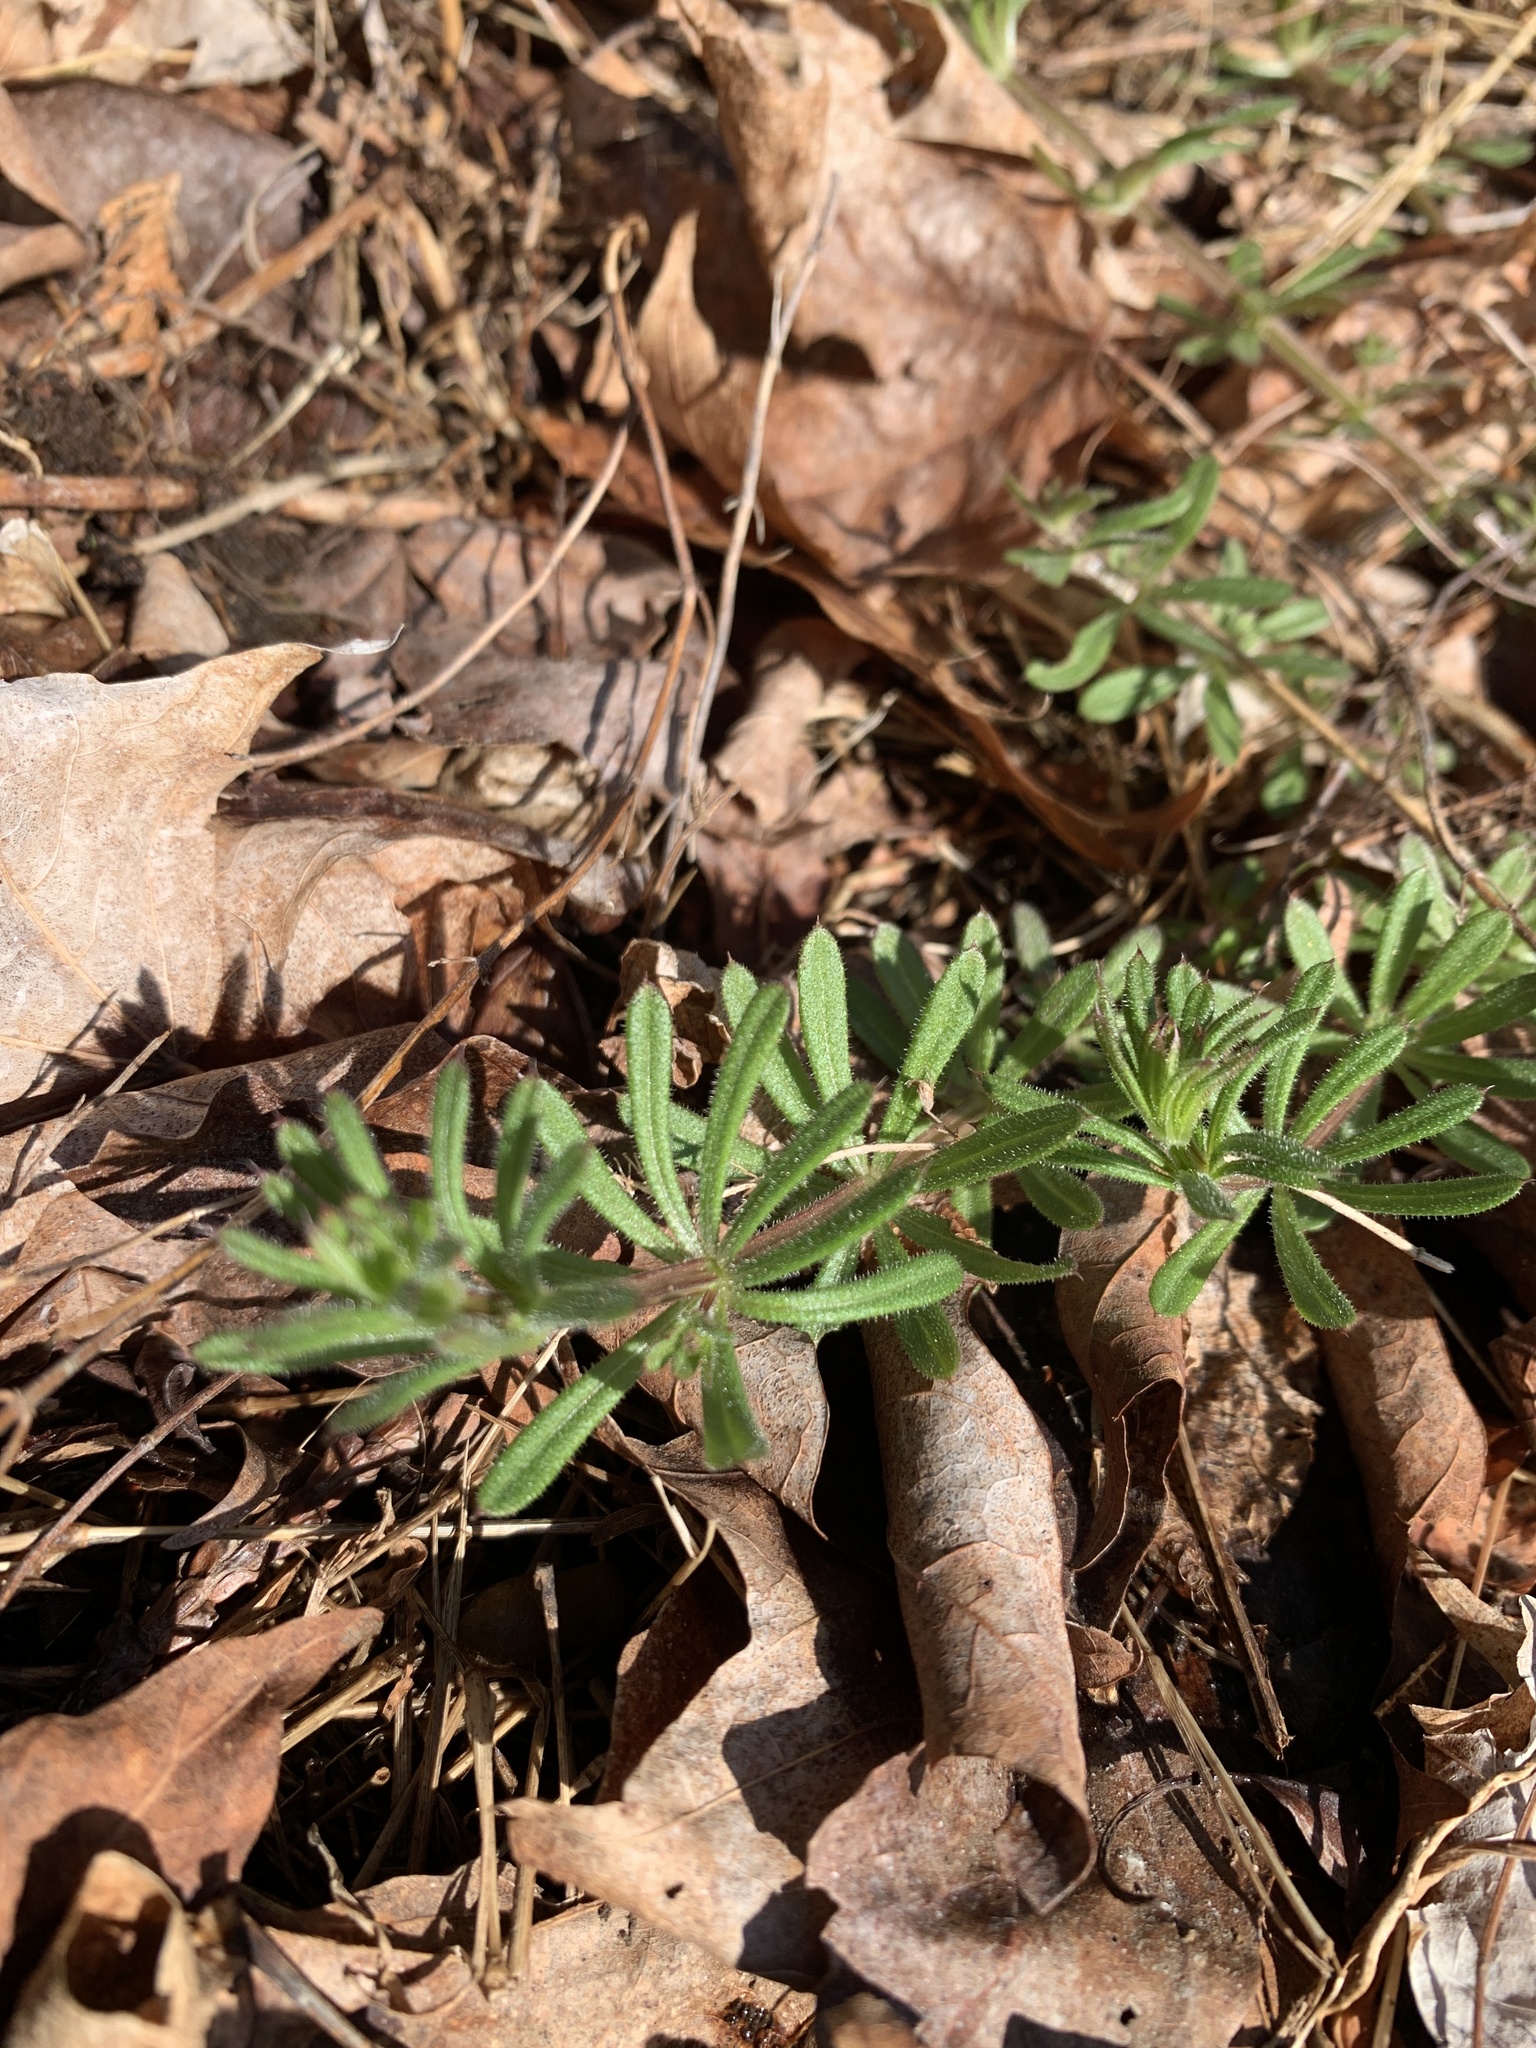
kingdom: Plantae
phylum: Tracheophyta
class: Magnoliopsida
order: Gentianales
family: Rubiaceae
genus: Galium
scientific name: Galium aparine
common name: Cleavers
